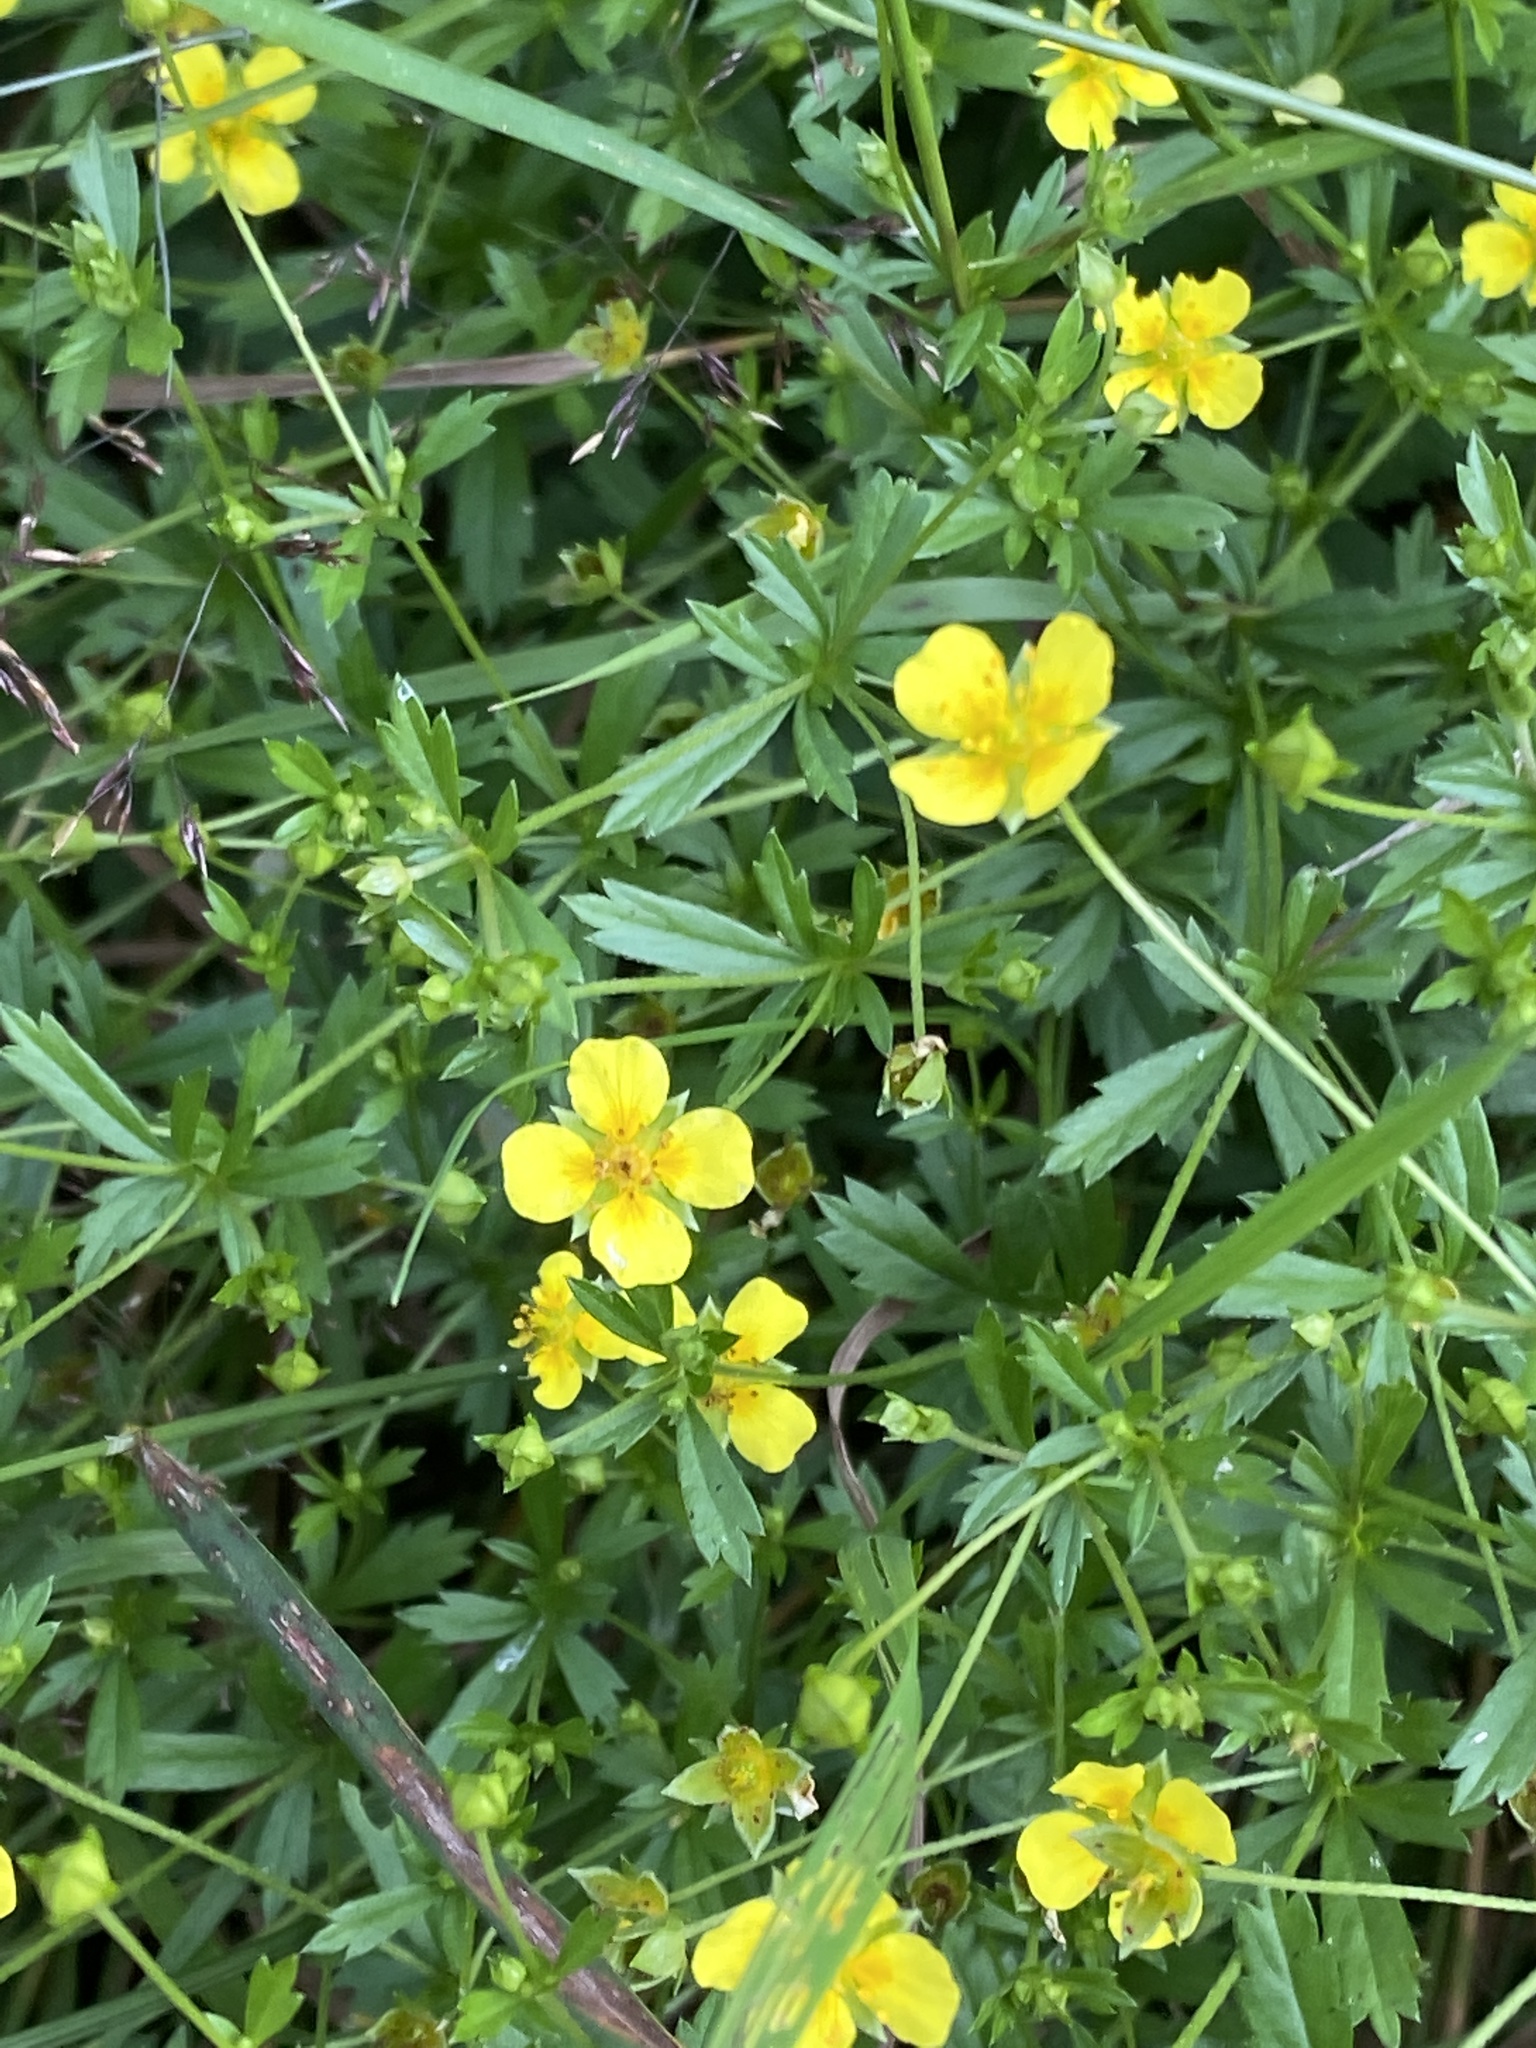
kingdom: Plantae
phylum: Tracheophyta
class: Magnoliopsida
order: Rosales
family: Rosaceae
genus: Potentilla
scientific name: Potentilla erecta
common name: Tormentil
